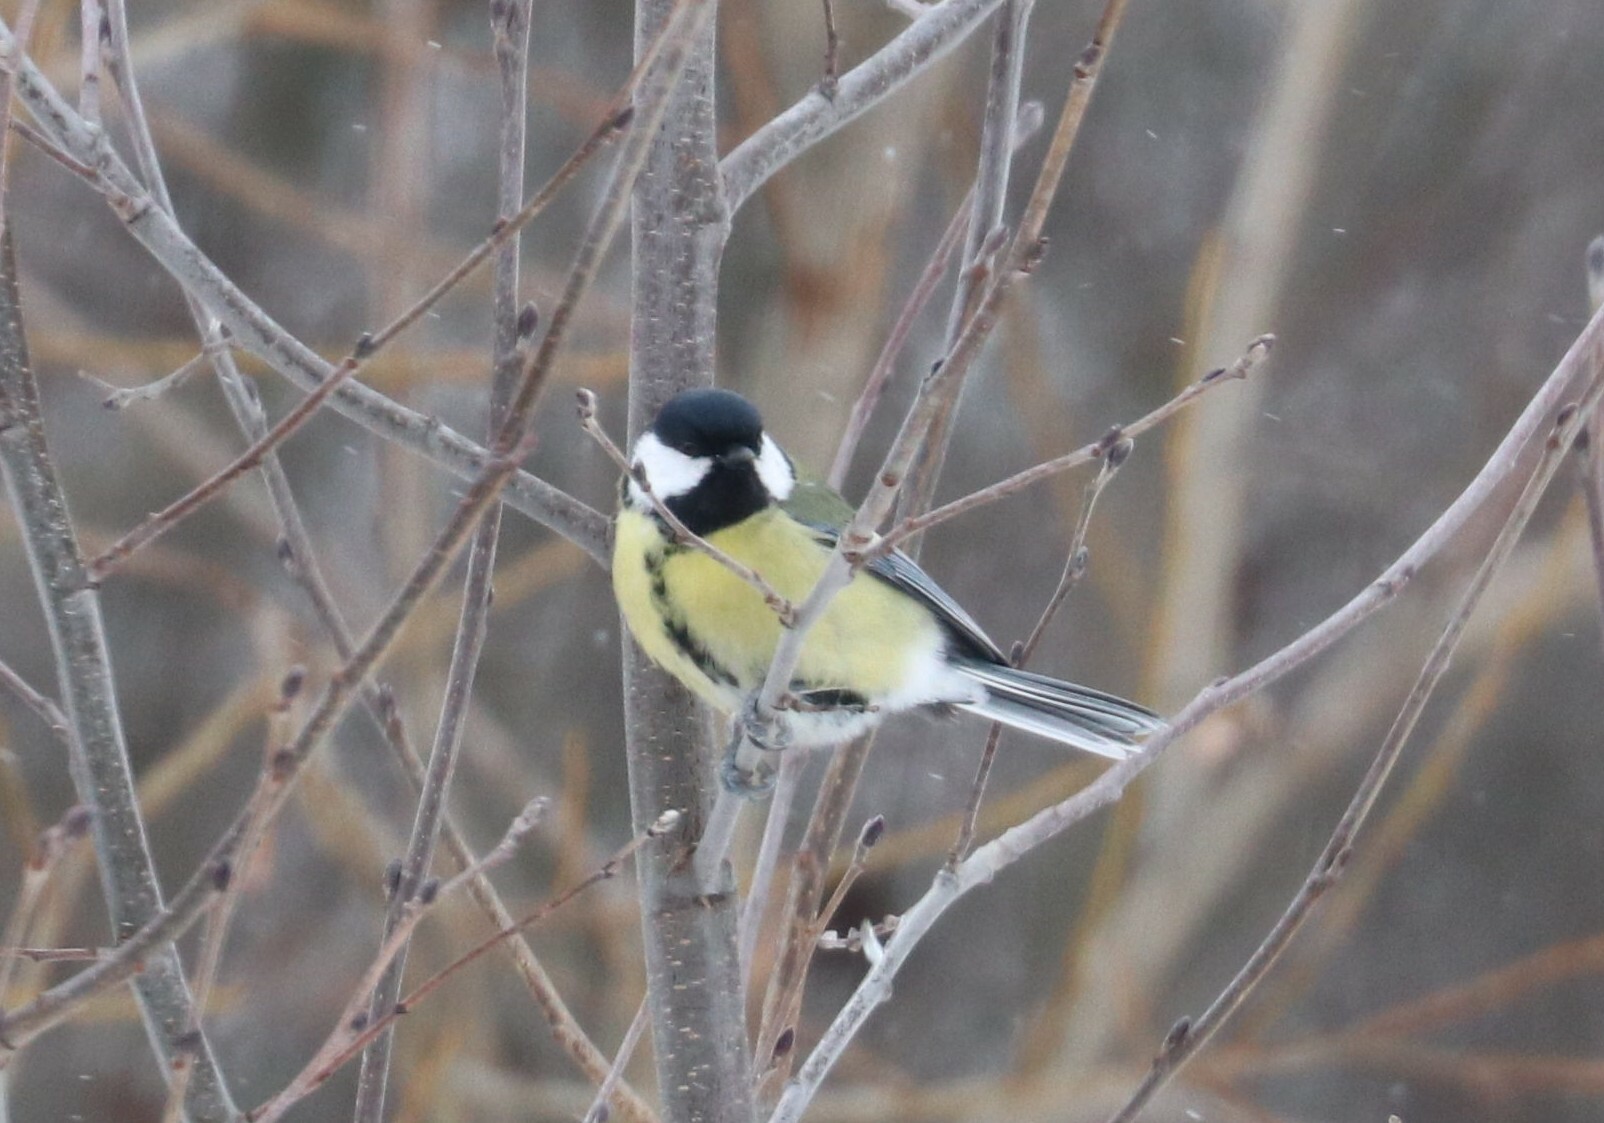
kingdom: Animalia
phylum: Chordata
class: Aves
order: Passeriformes
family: Paridae
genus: Parus
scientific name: Parus major
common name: Great tit
